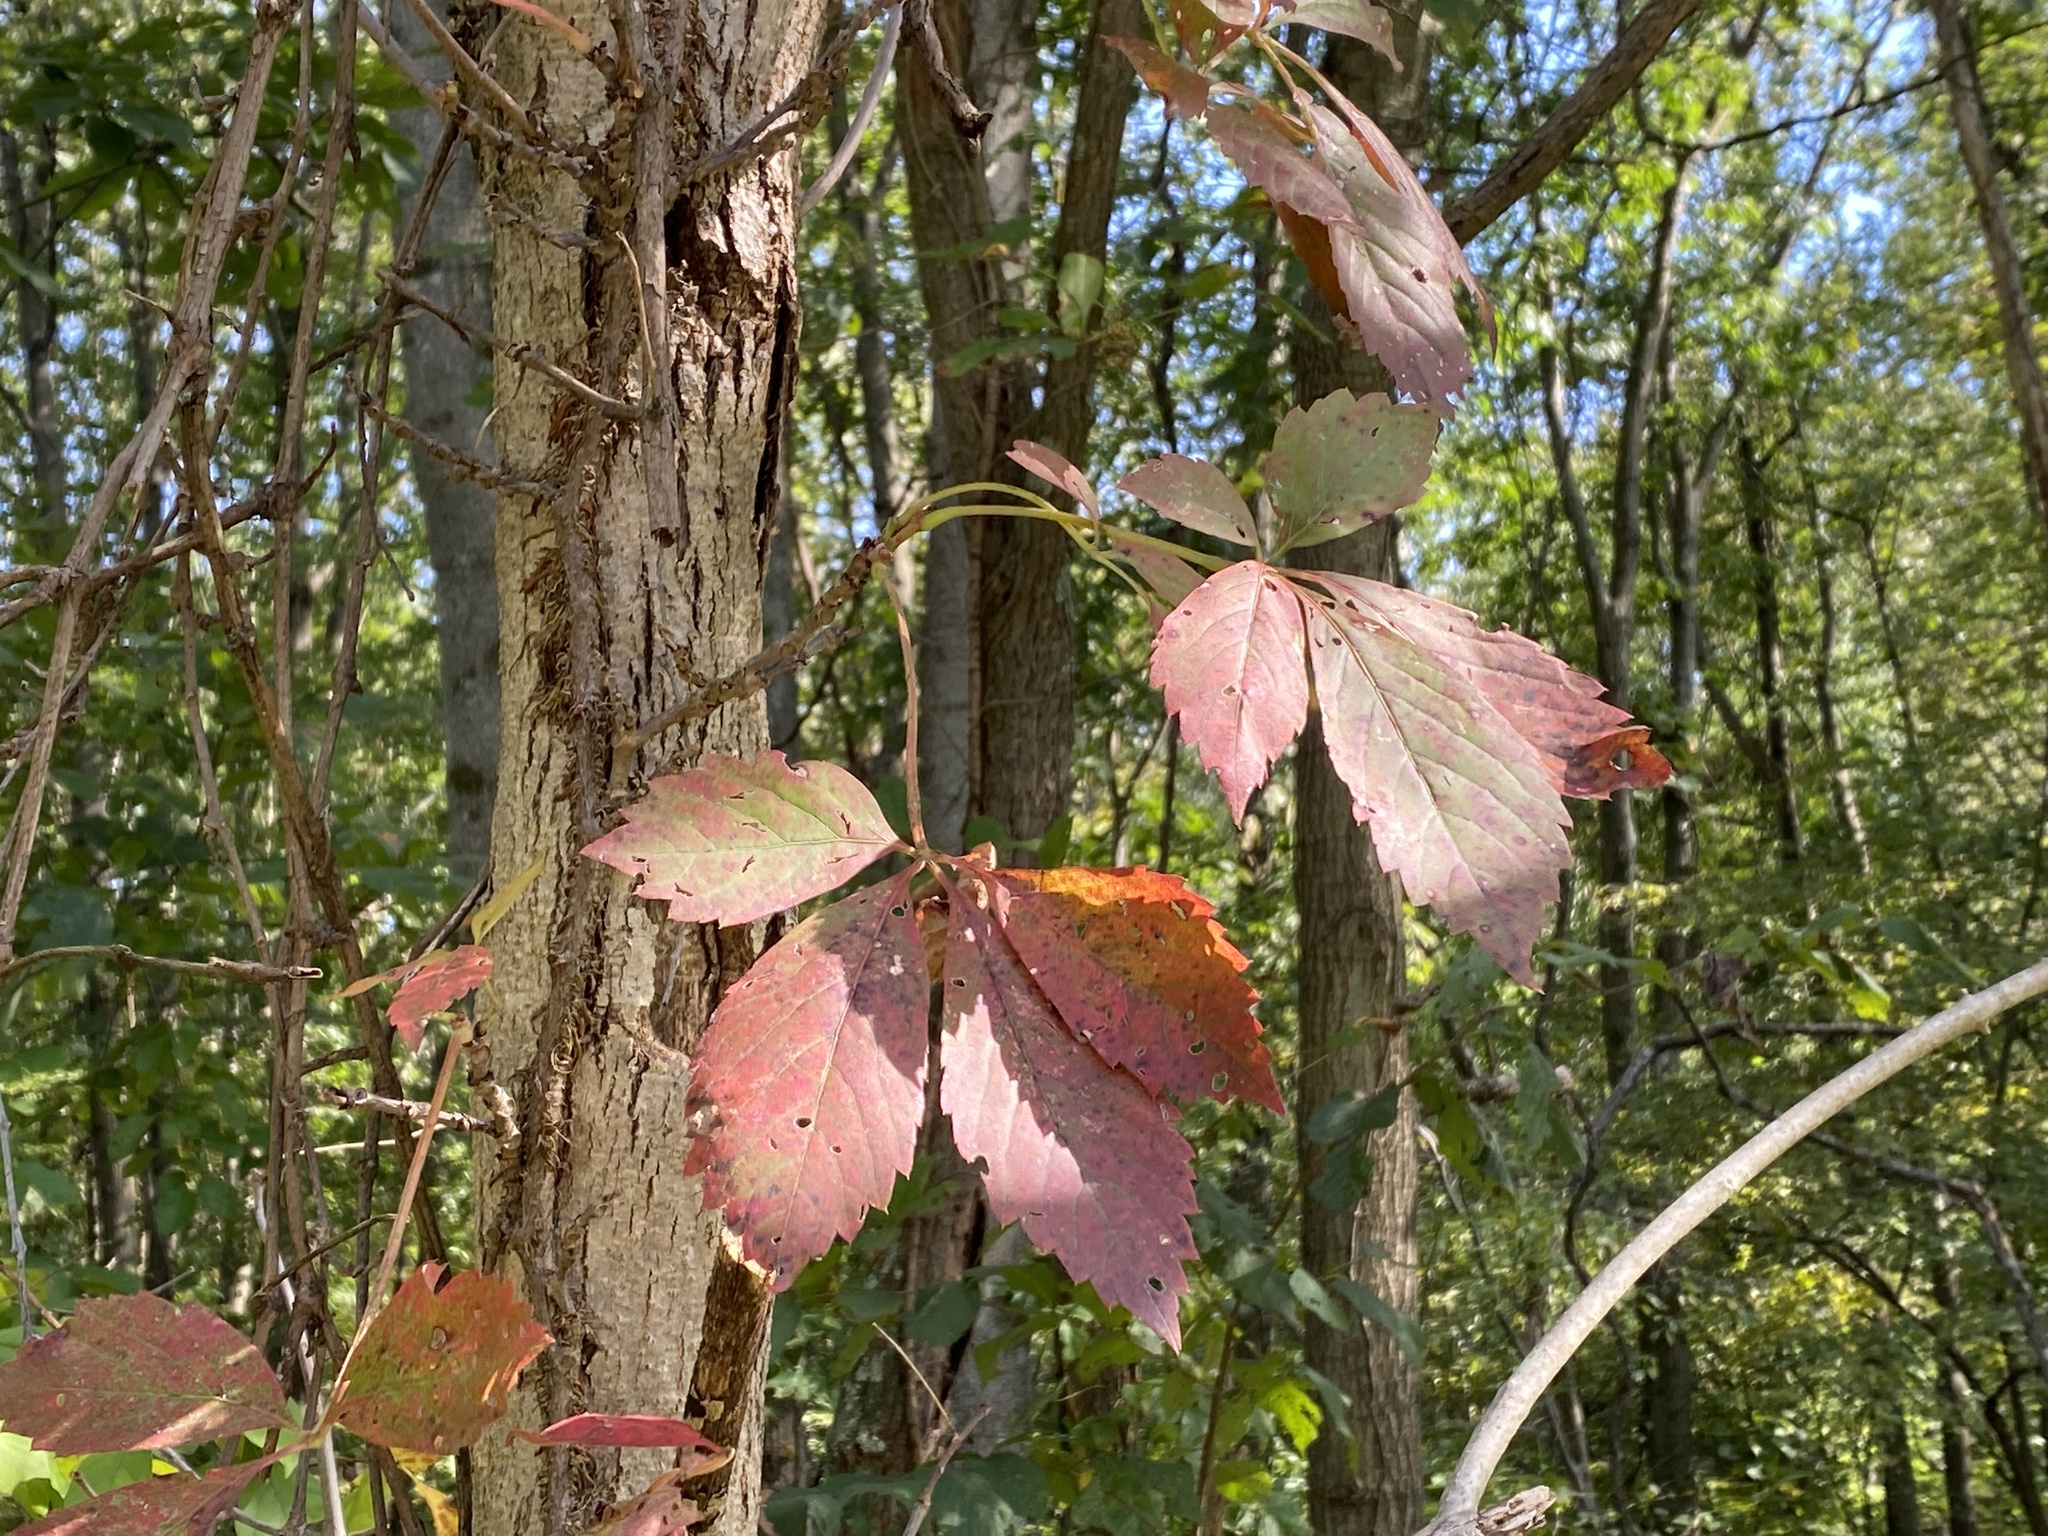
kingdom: Plantae
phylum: Tracheophyta
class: Magnoliopsida
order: Vitales
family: Vitaceae
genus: Parthenocissus
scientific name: Parthenocissus quinquefolia
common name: Virginia-creeper
